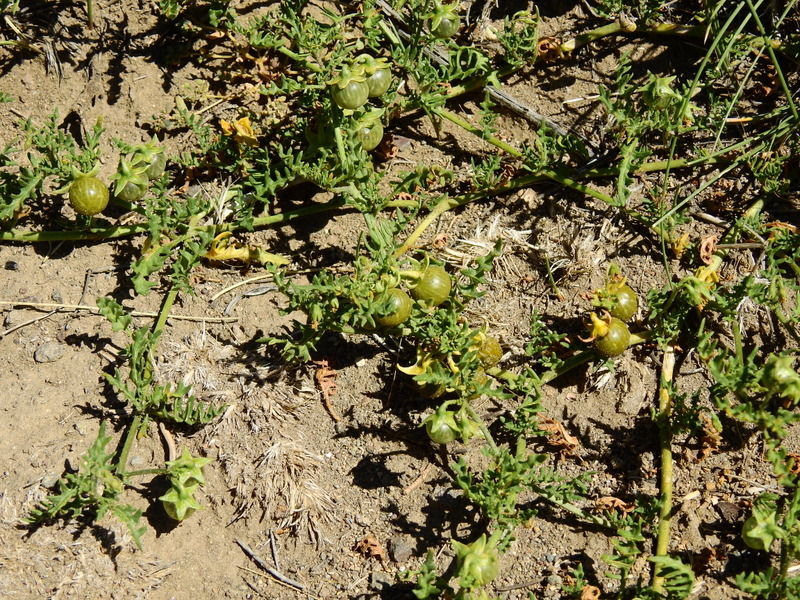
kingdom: Plantae
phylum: Tracheophyta
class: Magnoliopsida
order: Solanales
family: Solanaceae
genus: Solanum
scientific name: Solanum triflorum
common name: Small nightshade
